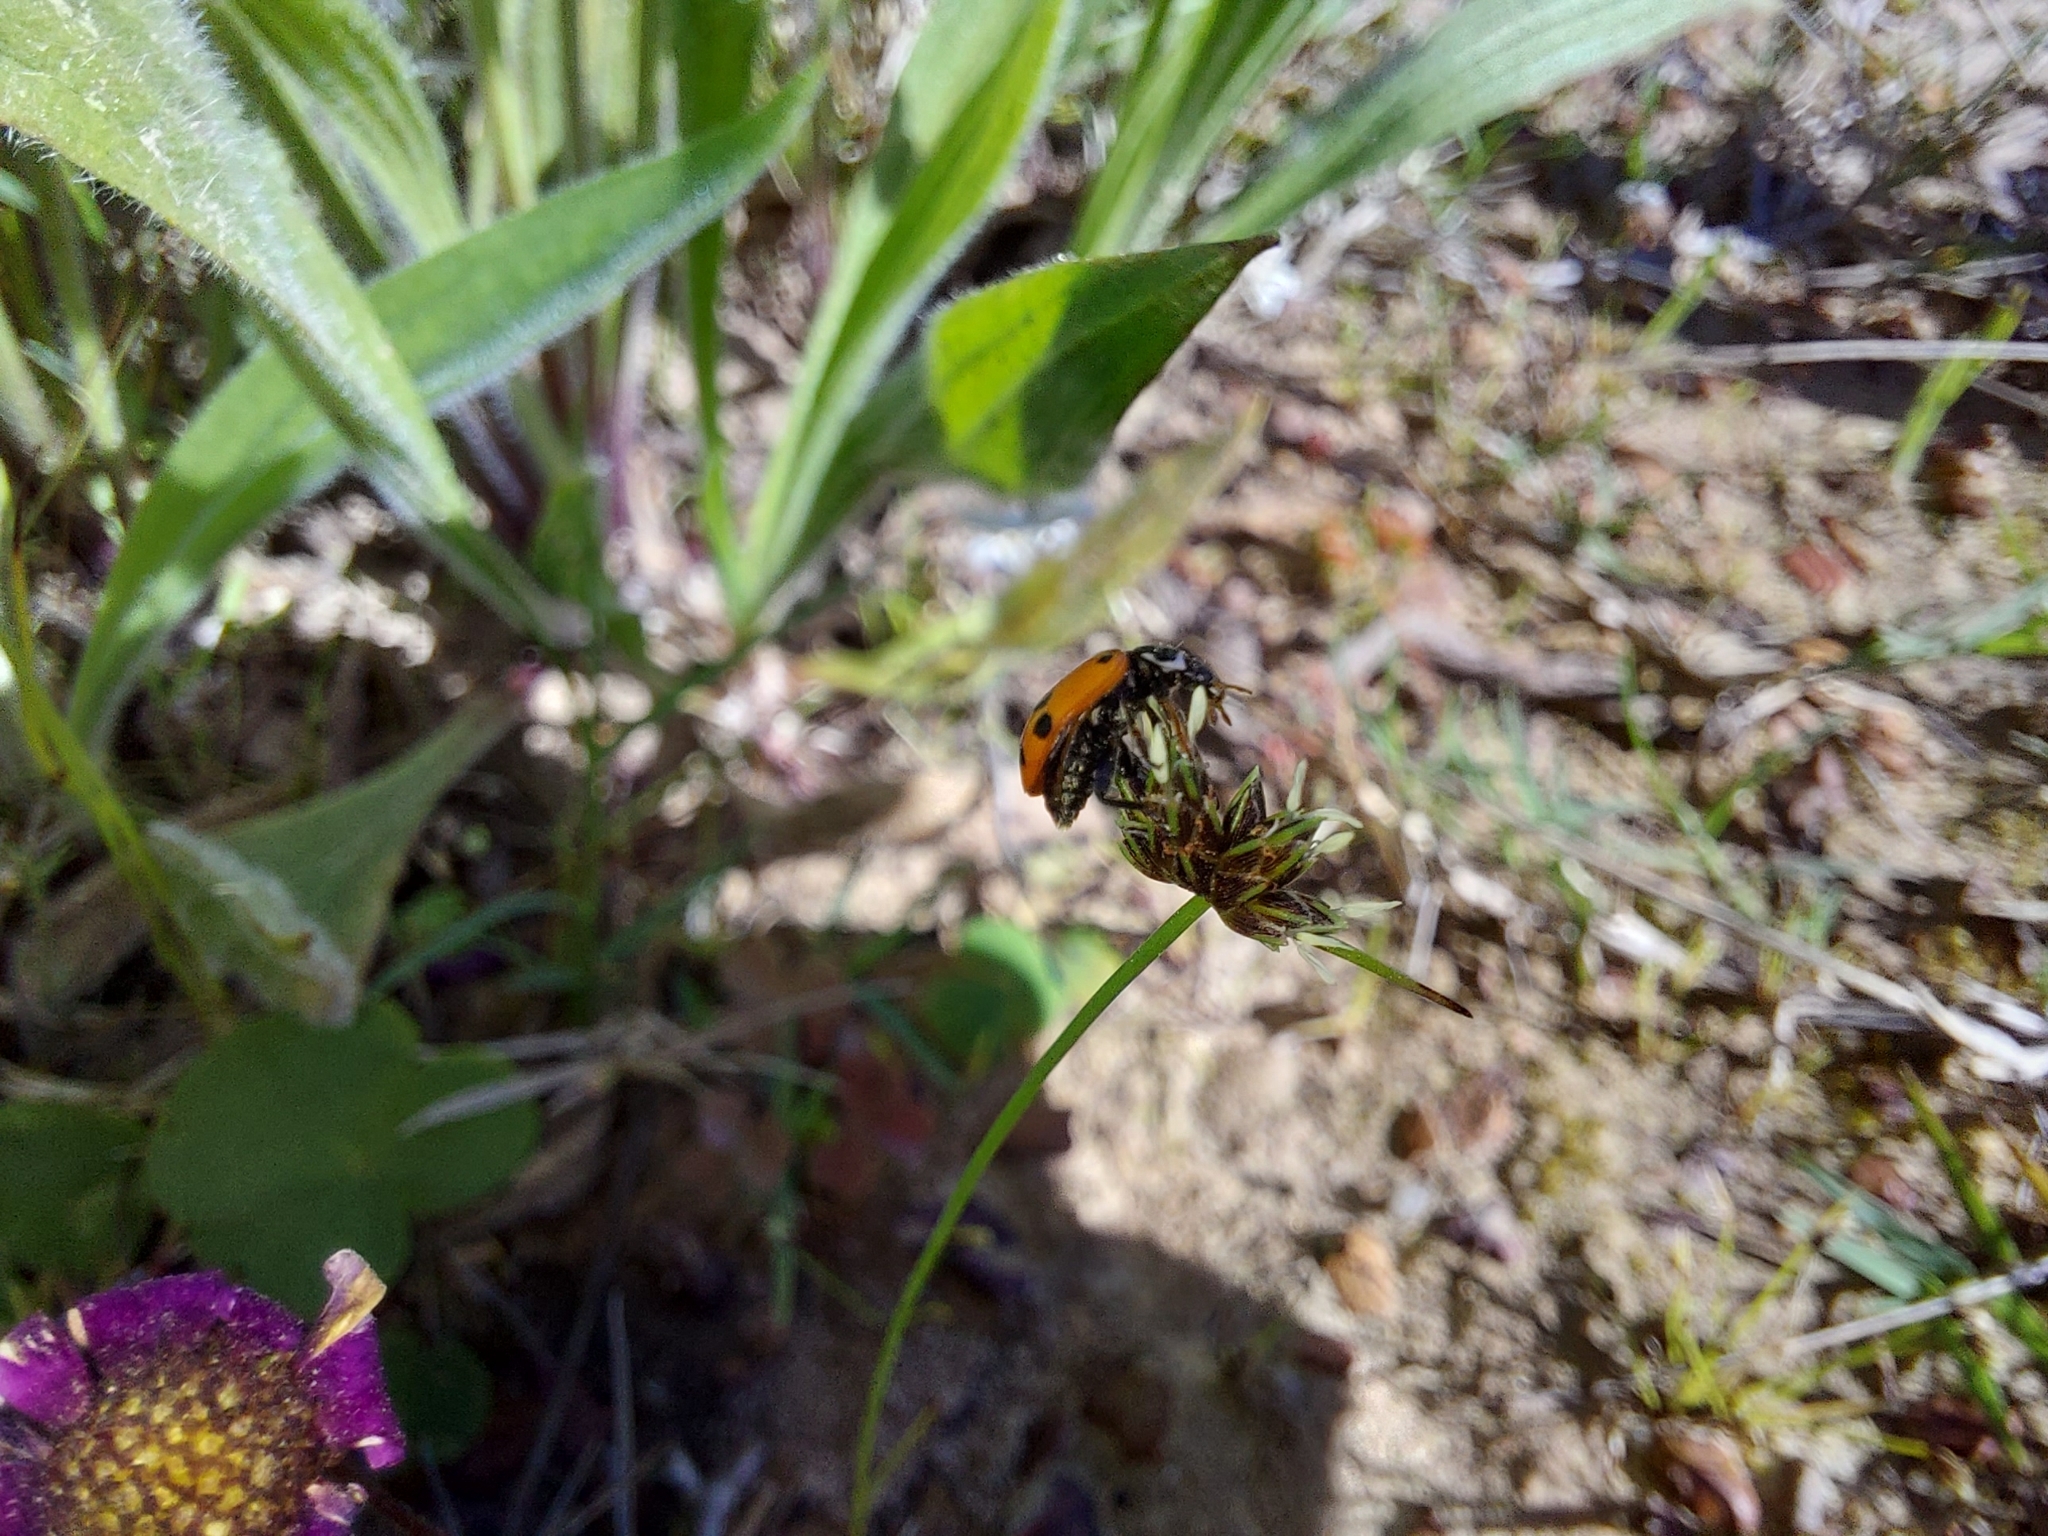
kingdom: Animalia
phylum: Arthropoda
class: Insecta
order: Coleoptera
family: Coccinellidae
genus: Hippodamia
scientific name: Hippodamia variegata
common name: Ladybird beetle
